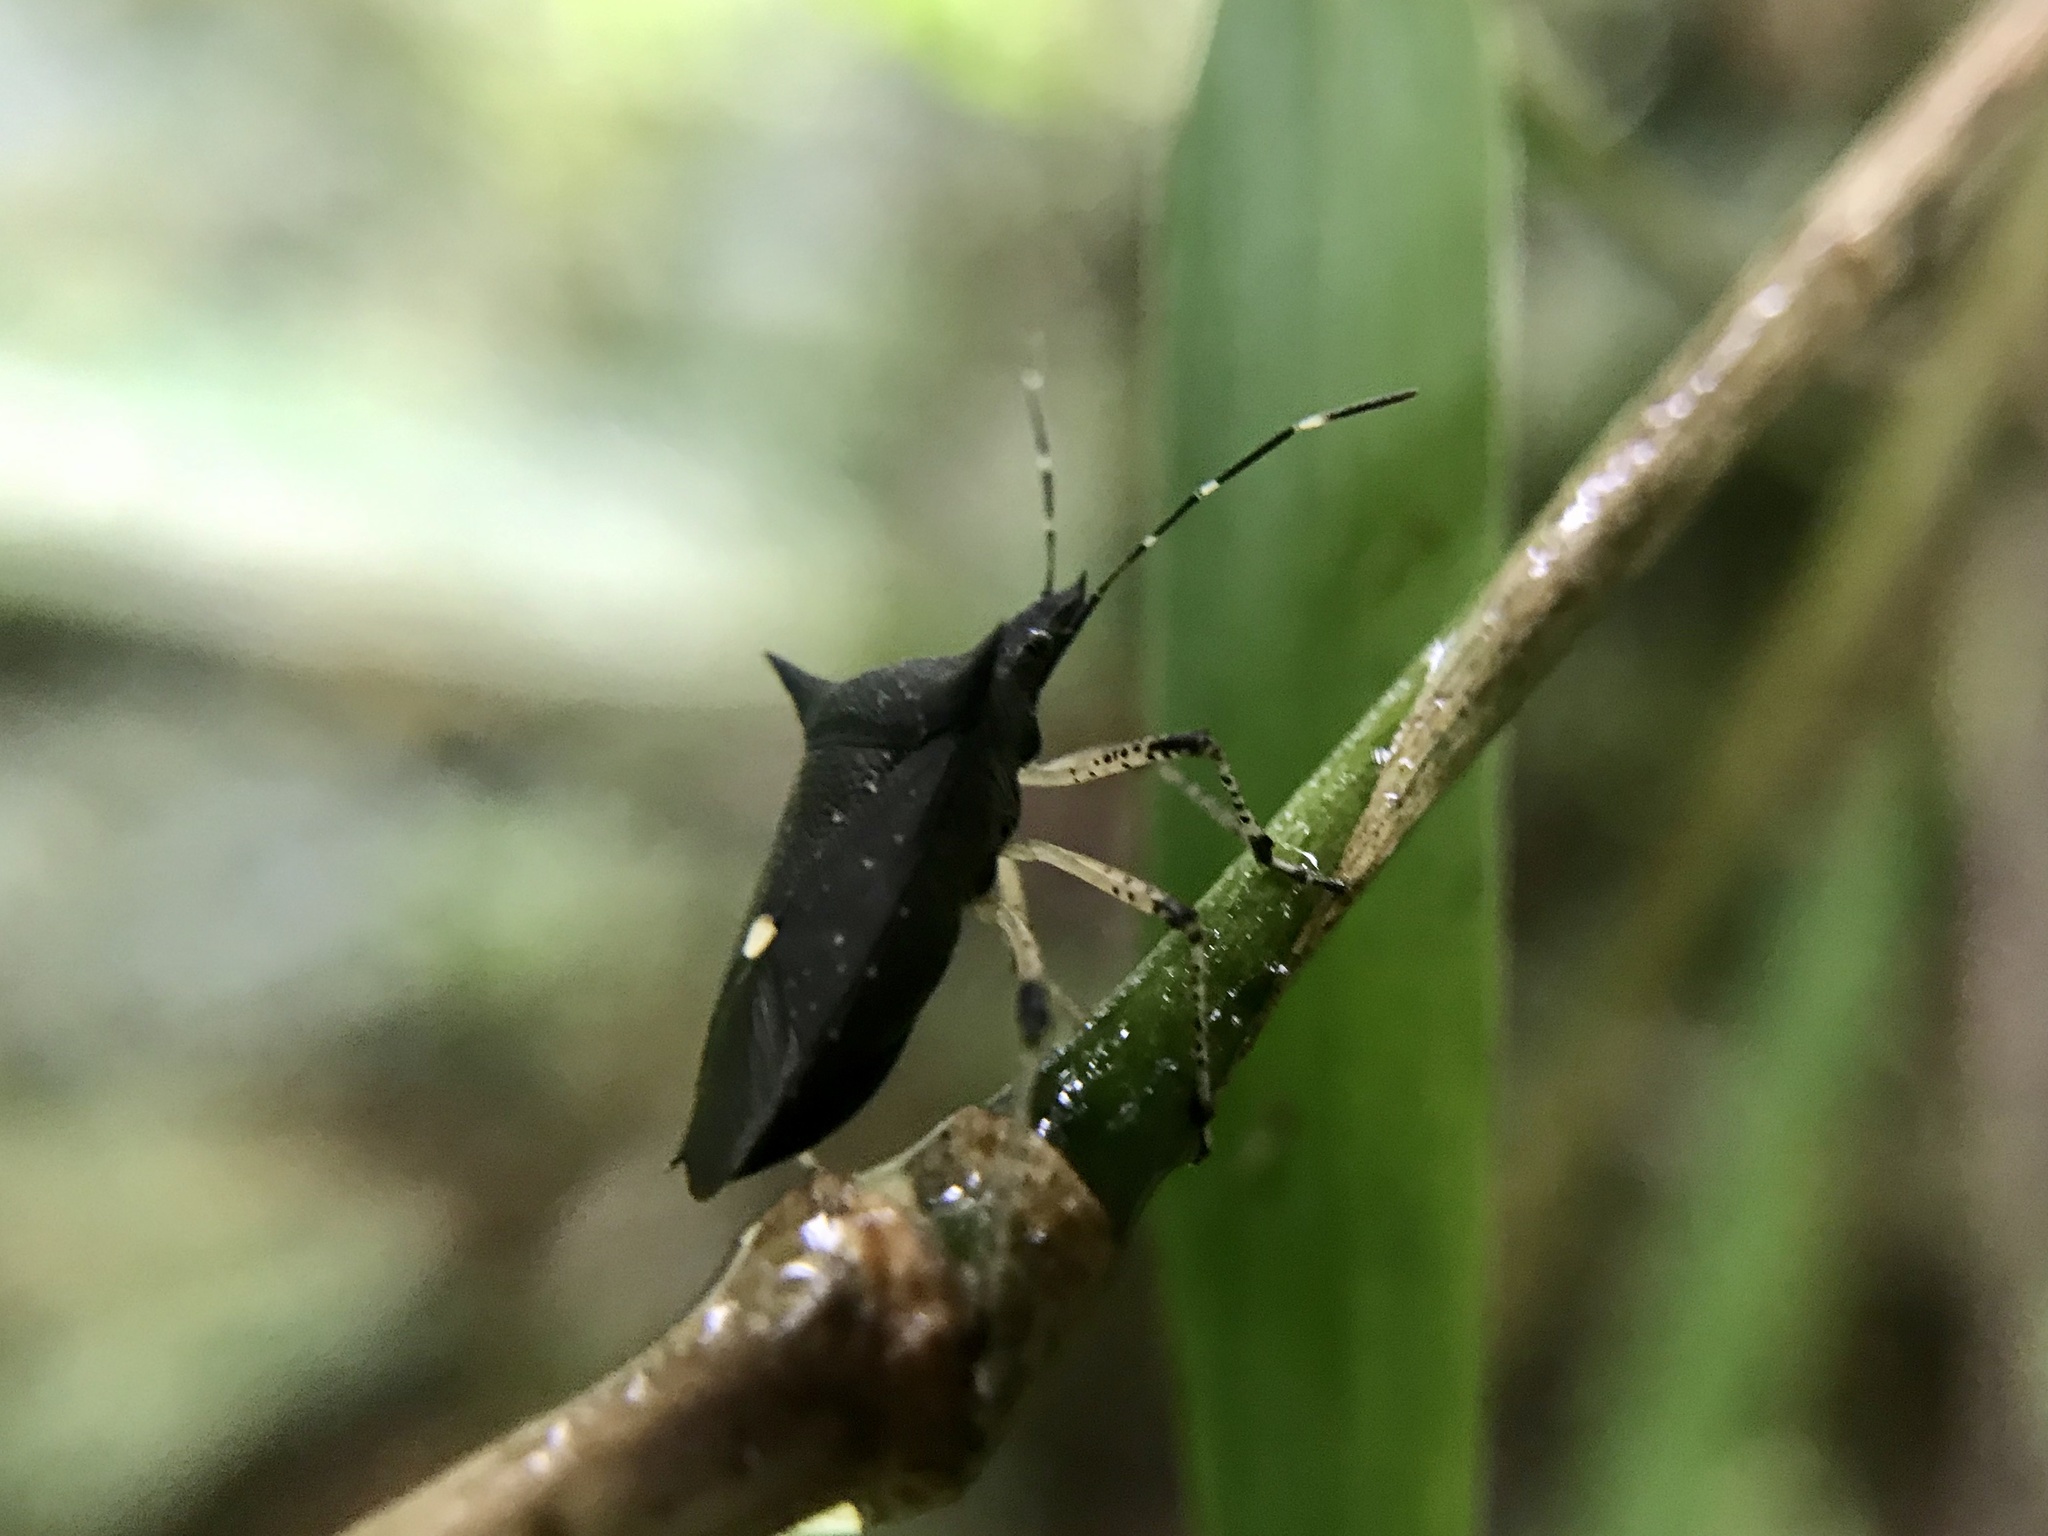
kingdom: Animalia
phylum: Arthropoda
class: Insecta
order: Hemiptera
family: Pentatomidae
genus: Proxys
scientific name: Proxys victor
